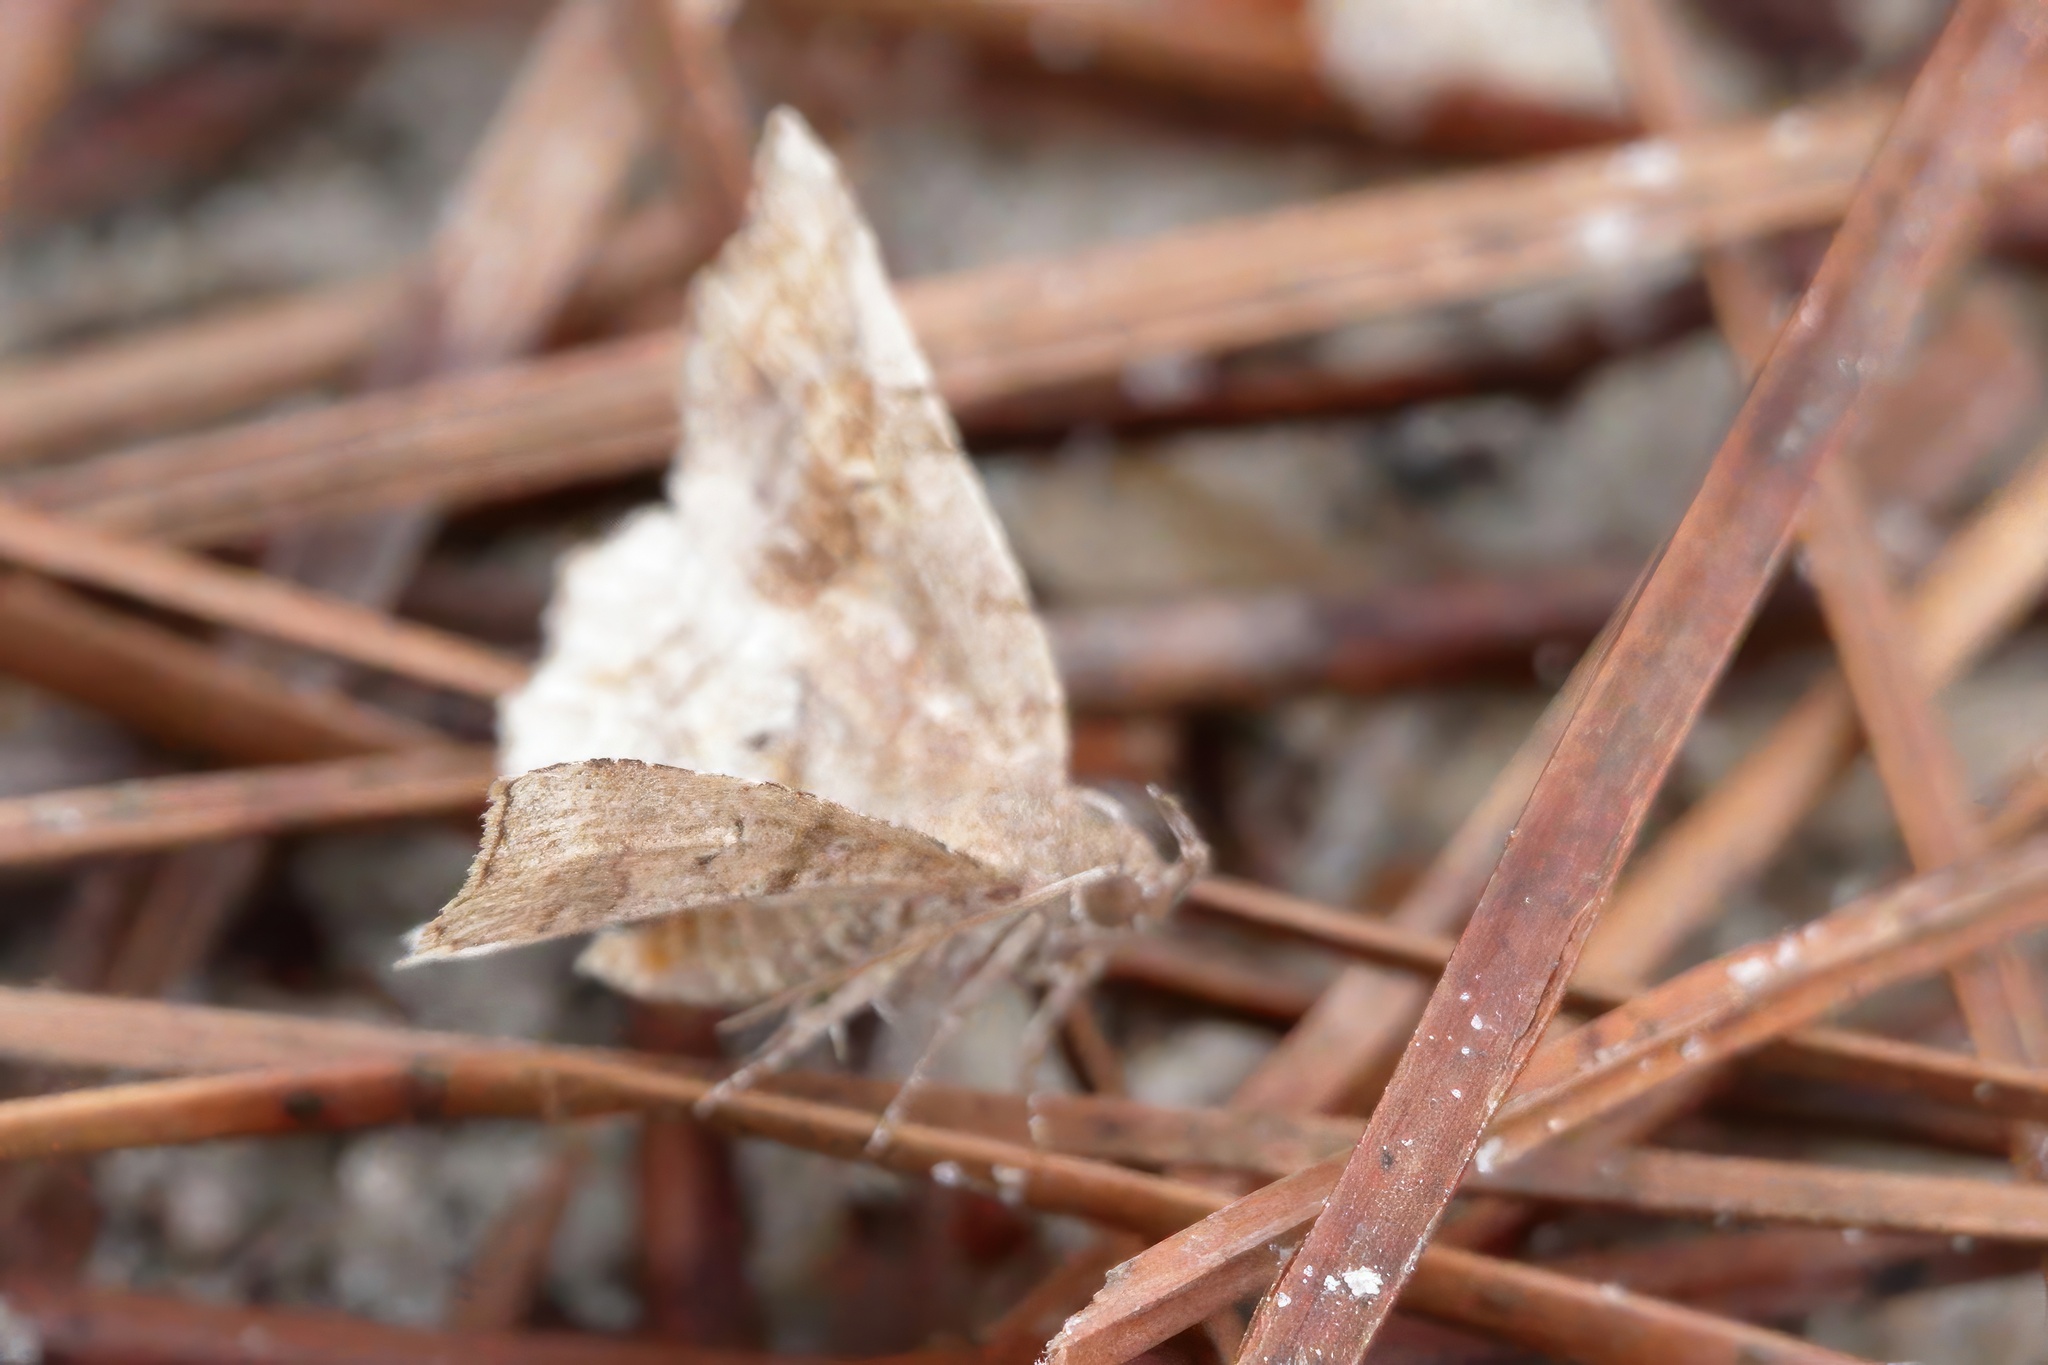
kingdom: Animalia
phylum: Arthropoda
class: Insecta
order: Lepidoptera
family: Erebidae
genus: Pangrapta
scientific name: Pangrapta decoralis
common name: Decorated owlet
